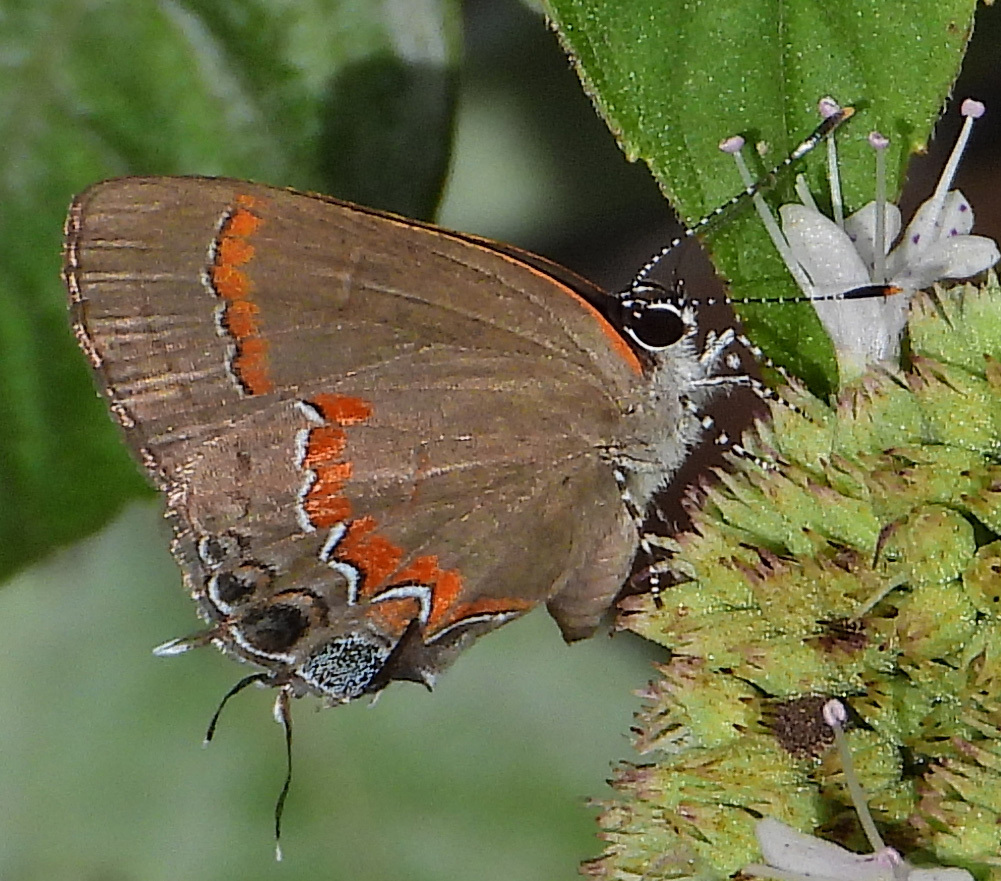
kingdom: Animalia
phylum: Arthropoda
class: Insecta
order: Lepidoptera
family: Lycaenidae
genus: Calycopis
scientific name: Calycopis cecrops
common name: Red-banded hairstreak
